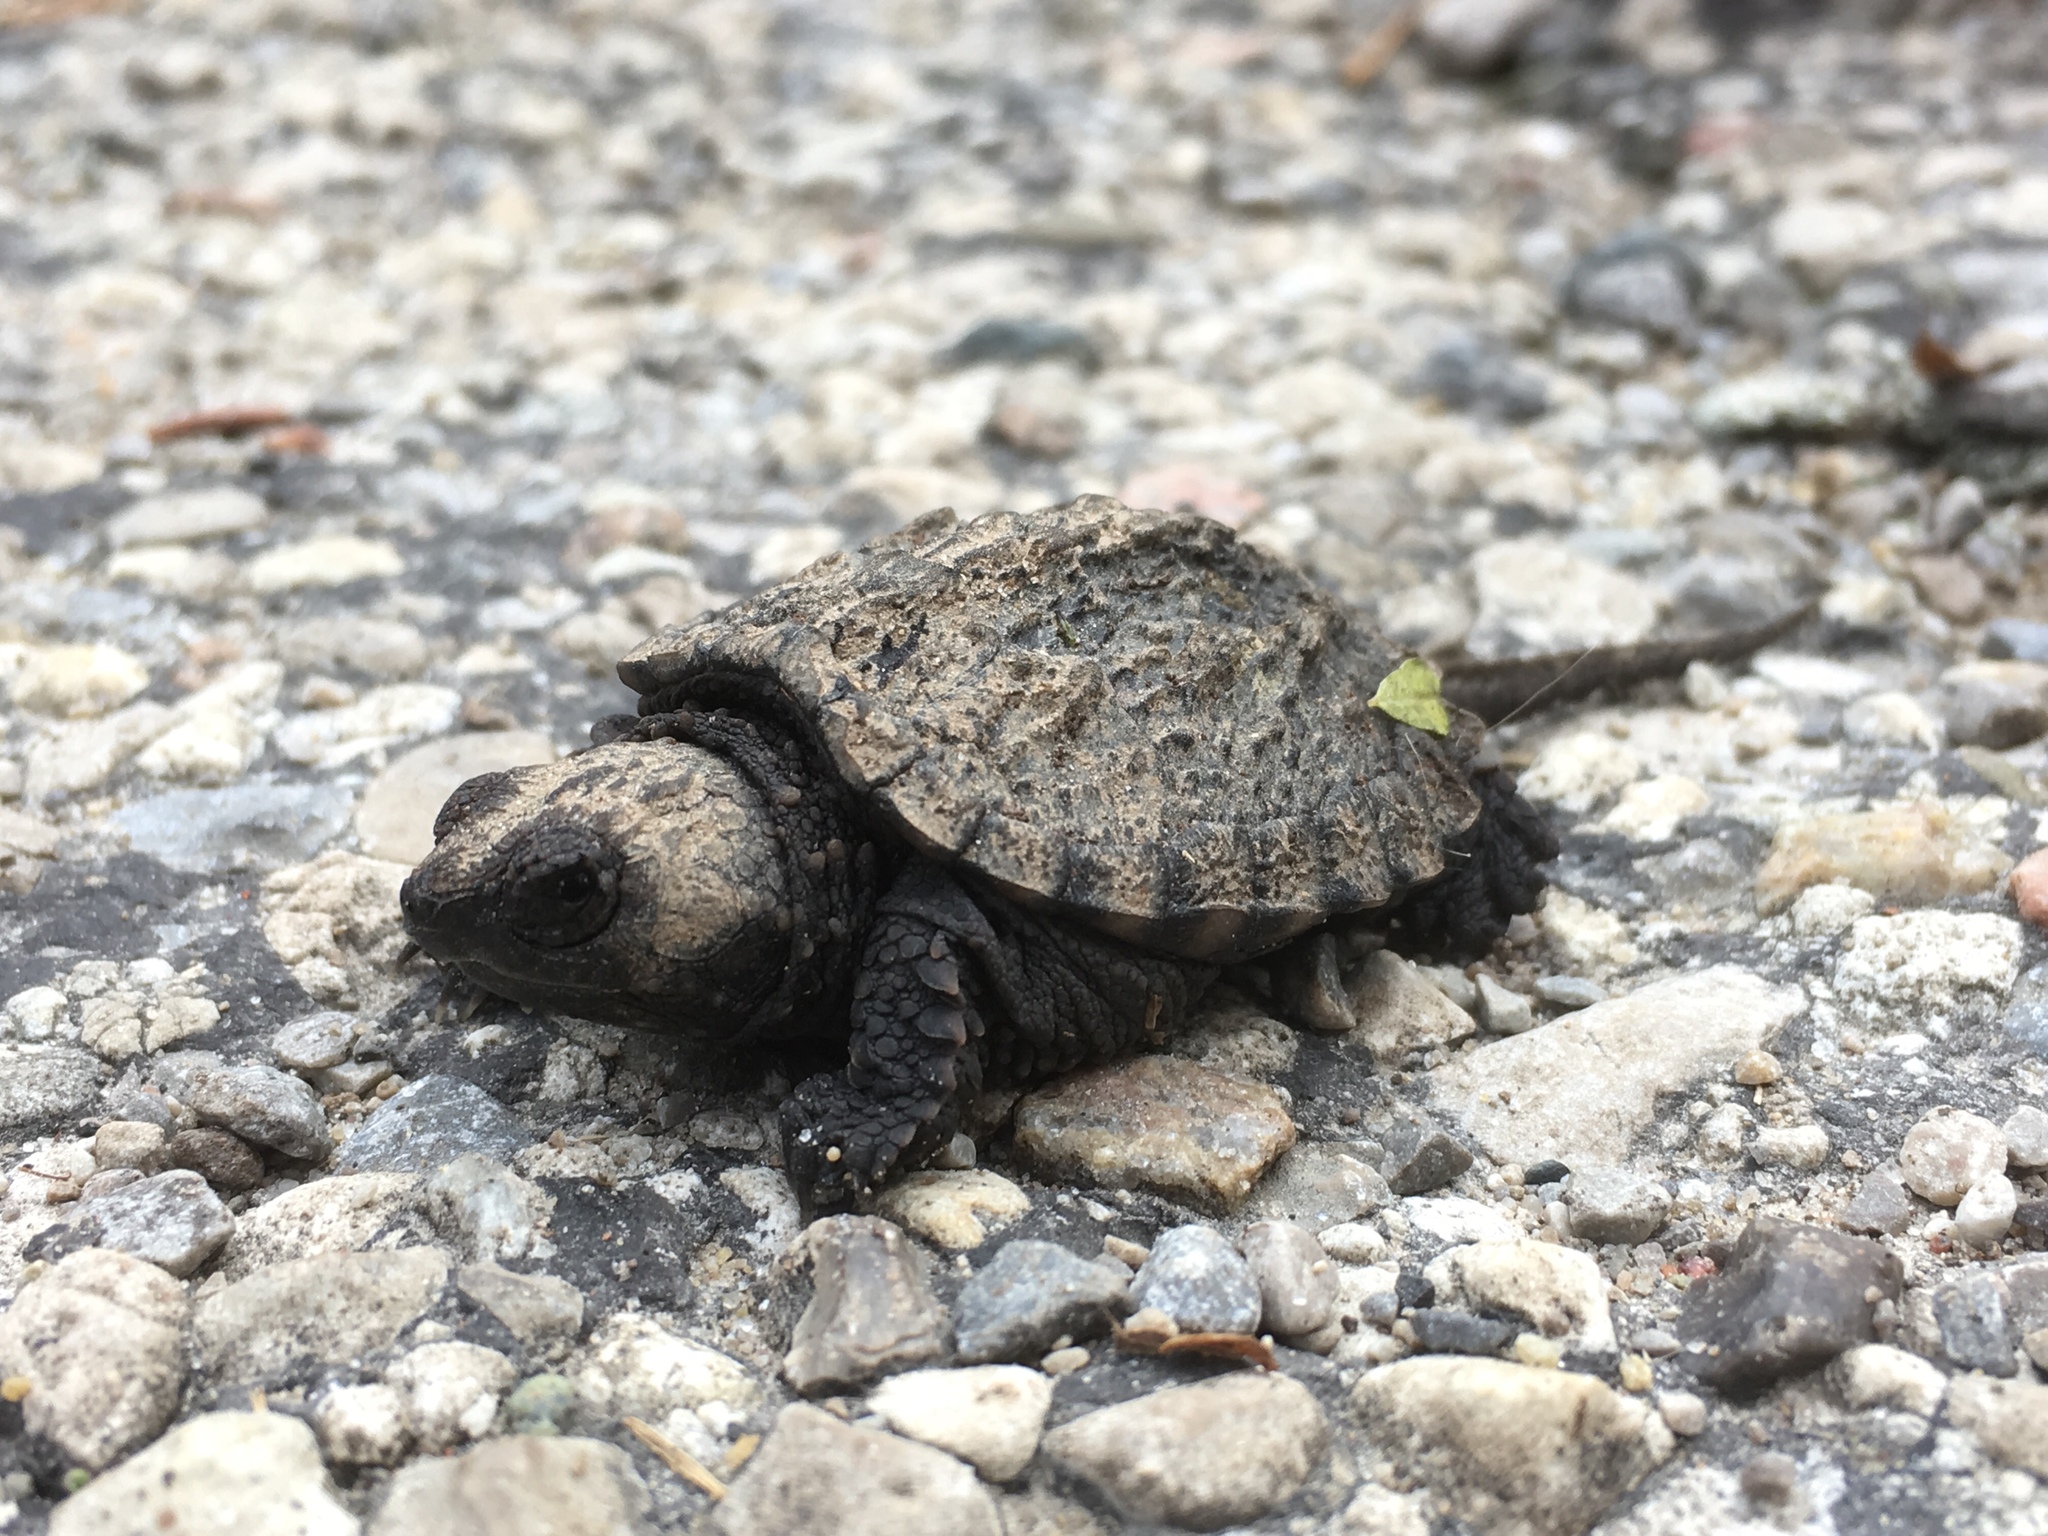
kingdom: Animalia
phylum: Chordata
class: Testudines
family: Chelydridae
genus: Chelydra
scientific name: Chelydra serpentina
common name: Common snapping turtle
